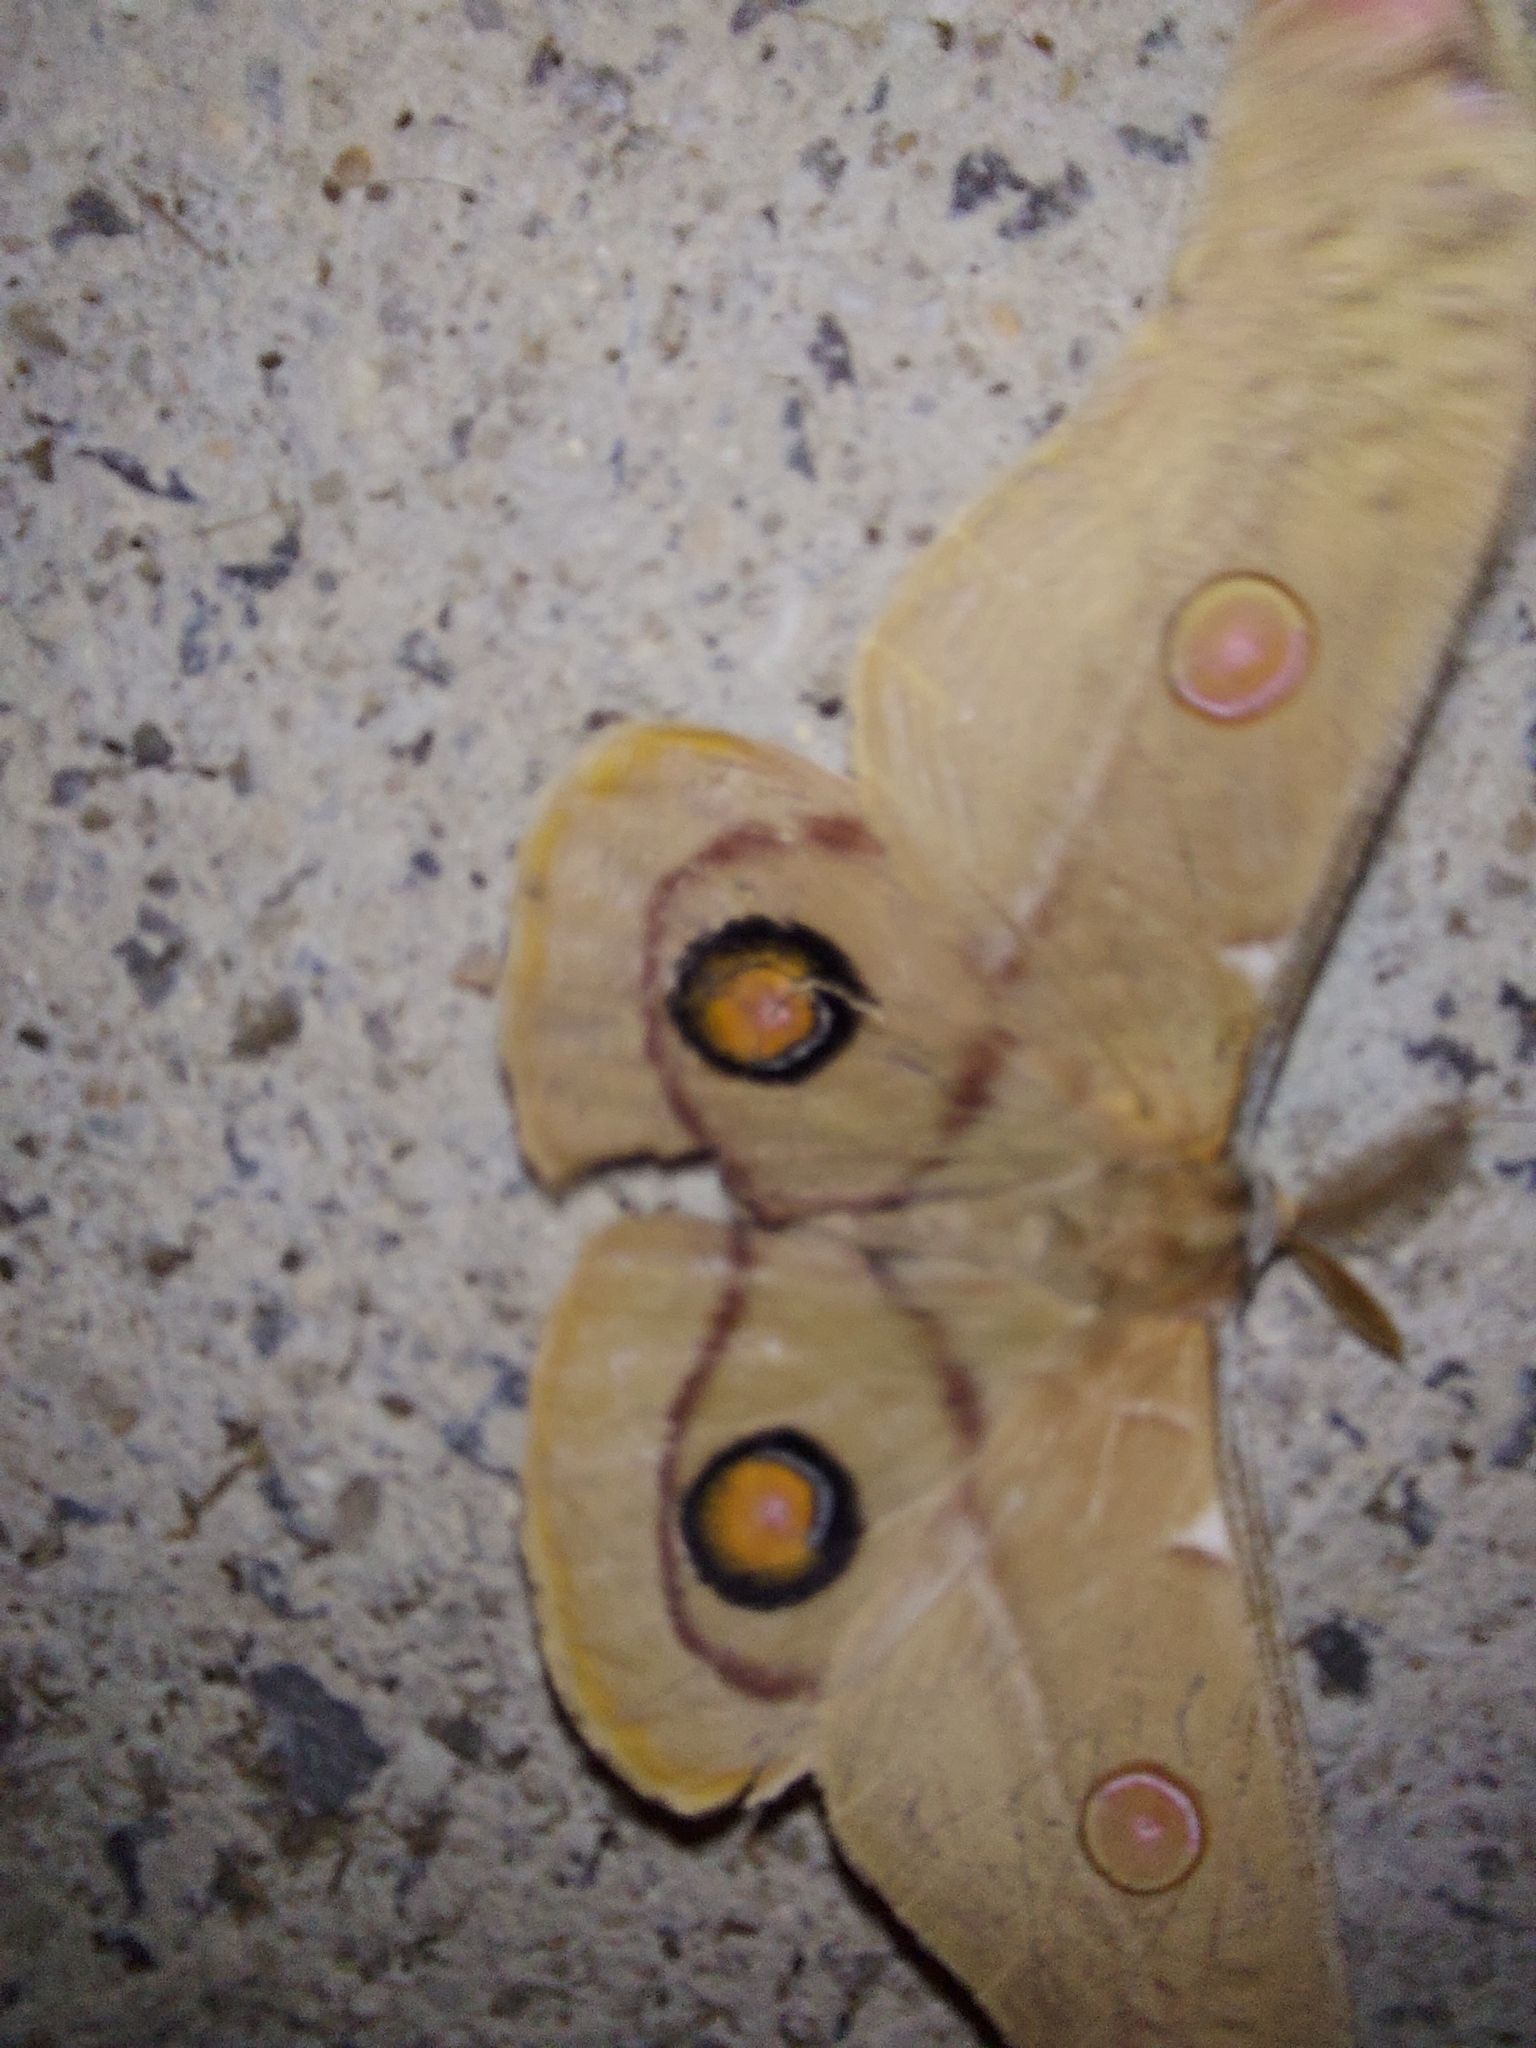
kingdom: Animalia
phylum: Arthropoda
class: Insecta
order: Lepidoptera
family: Saturniidae
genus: Opodiphthera
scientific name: Opodiphthera
